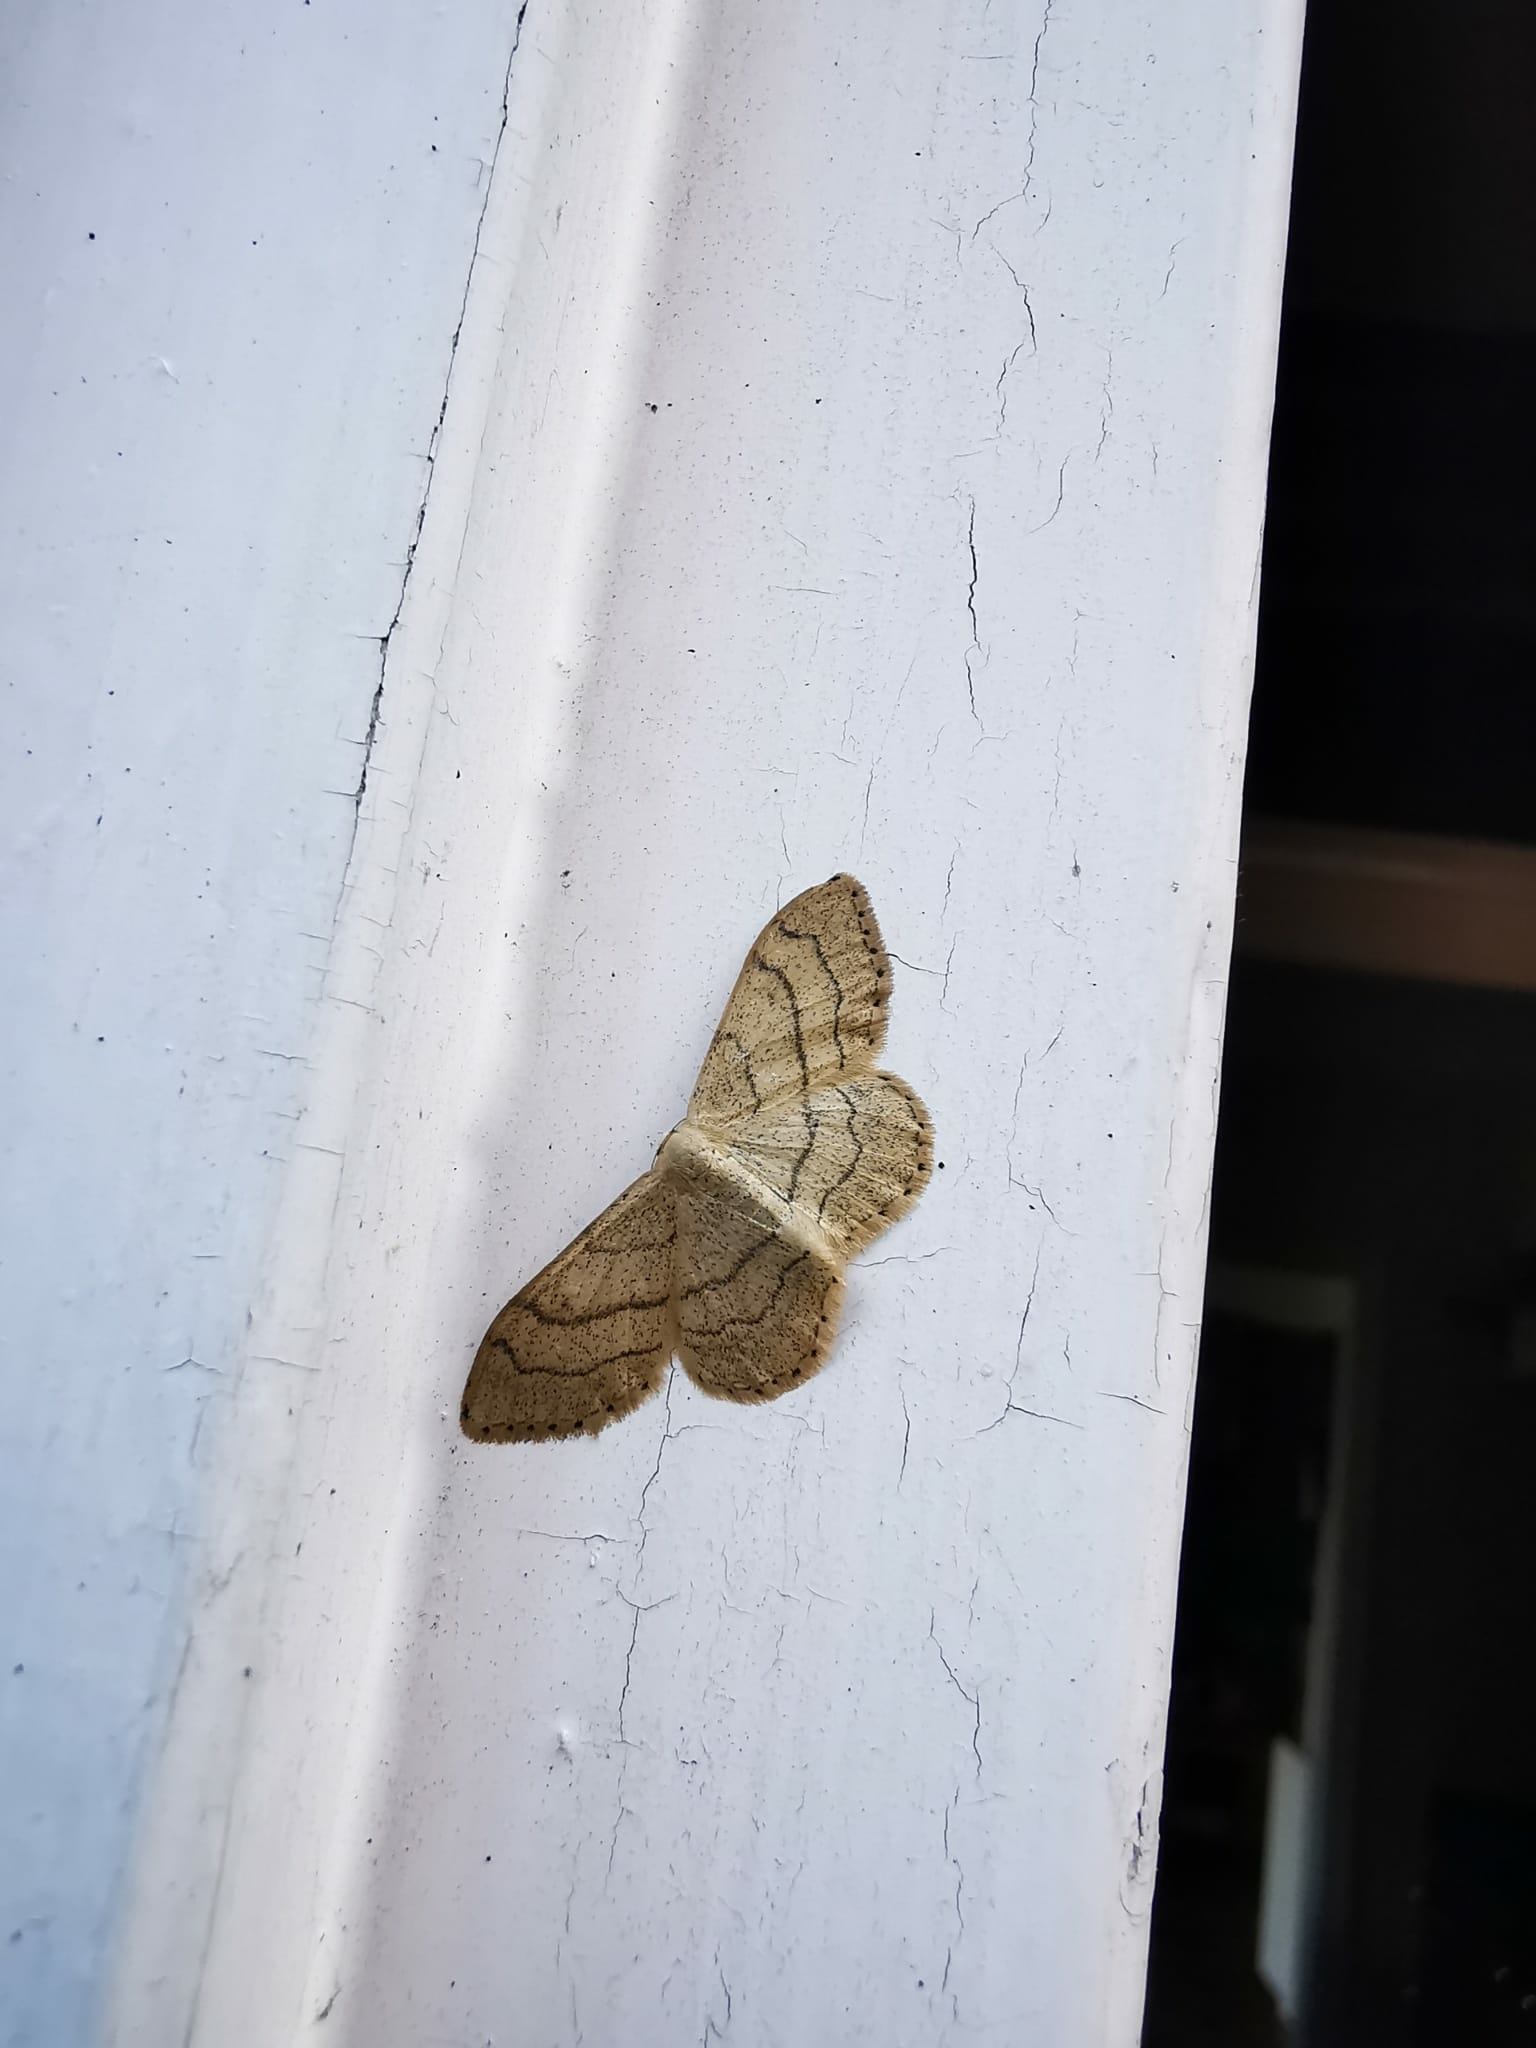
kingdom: Animalia
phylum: Arthropoda
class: Insecta
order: Lepidoptera
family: Geometridae
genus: Idaea
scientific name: Idaea aversata
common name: Riband wave
